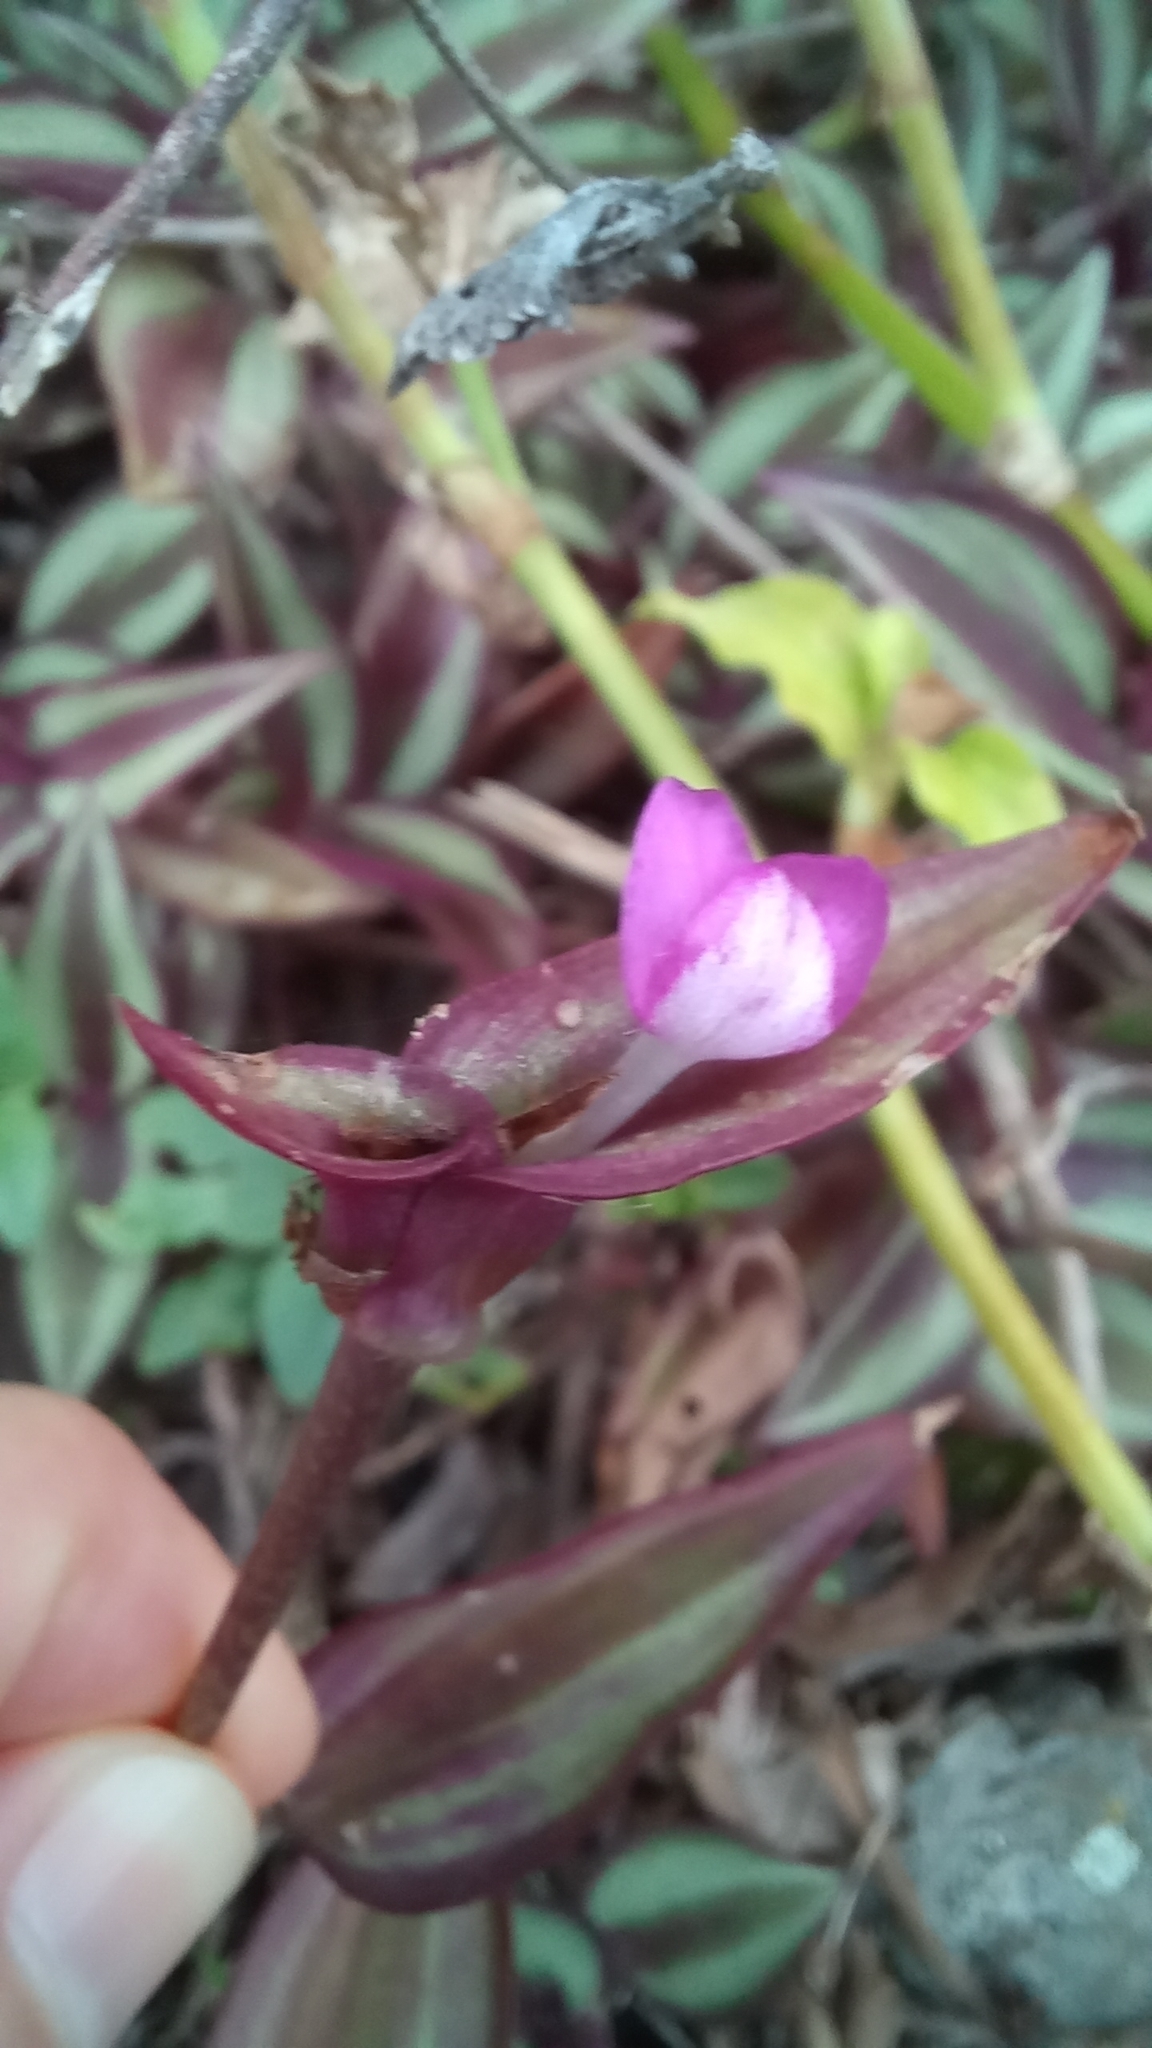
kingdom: Plantae
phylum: Tracheophyta
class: Liliopsida
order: Commelinales
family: Commelinaceae
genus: Tradescantia
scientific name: Tradescantia zebrina
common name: Inchplant
